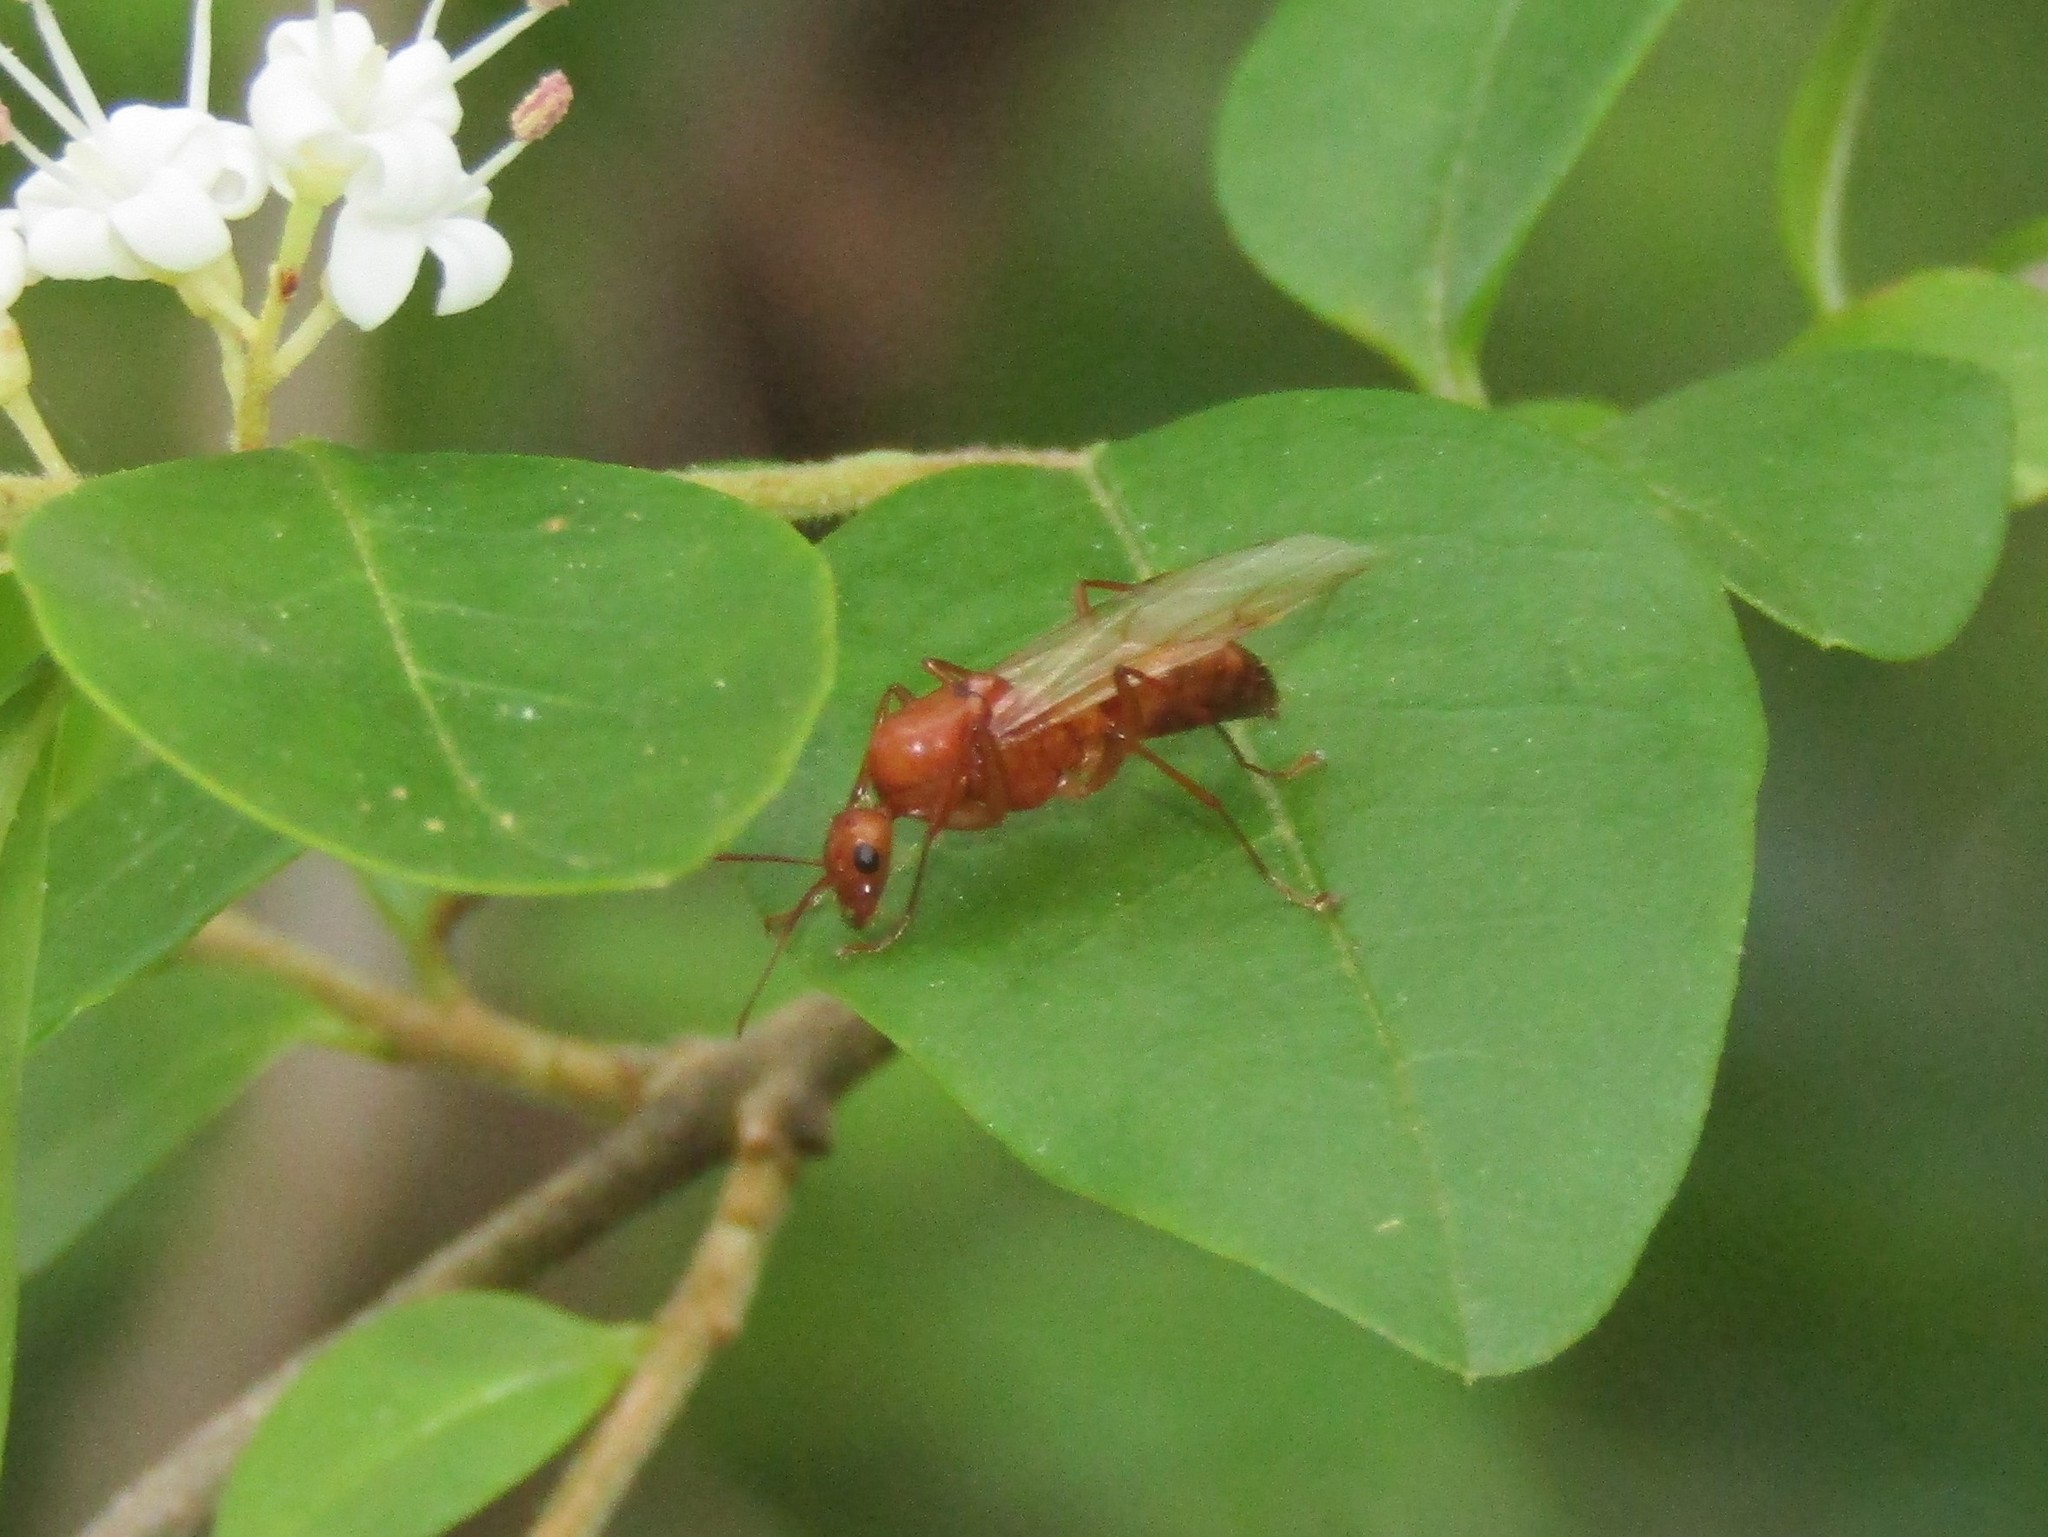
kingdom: Animalia
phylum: Arthropoda
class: Insecta
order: Hymenoptera
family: Formicidae
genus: Camponotus
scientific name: Camponotus castaneus
